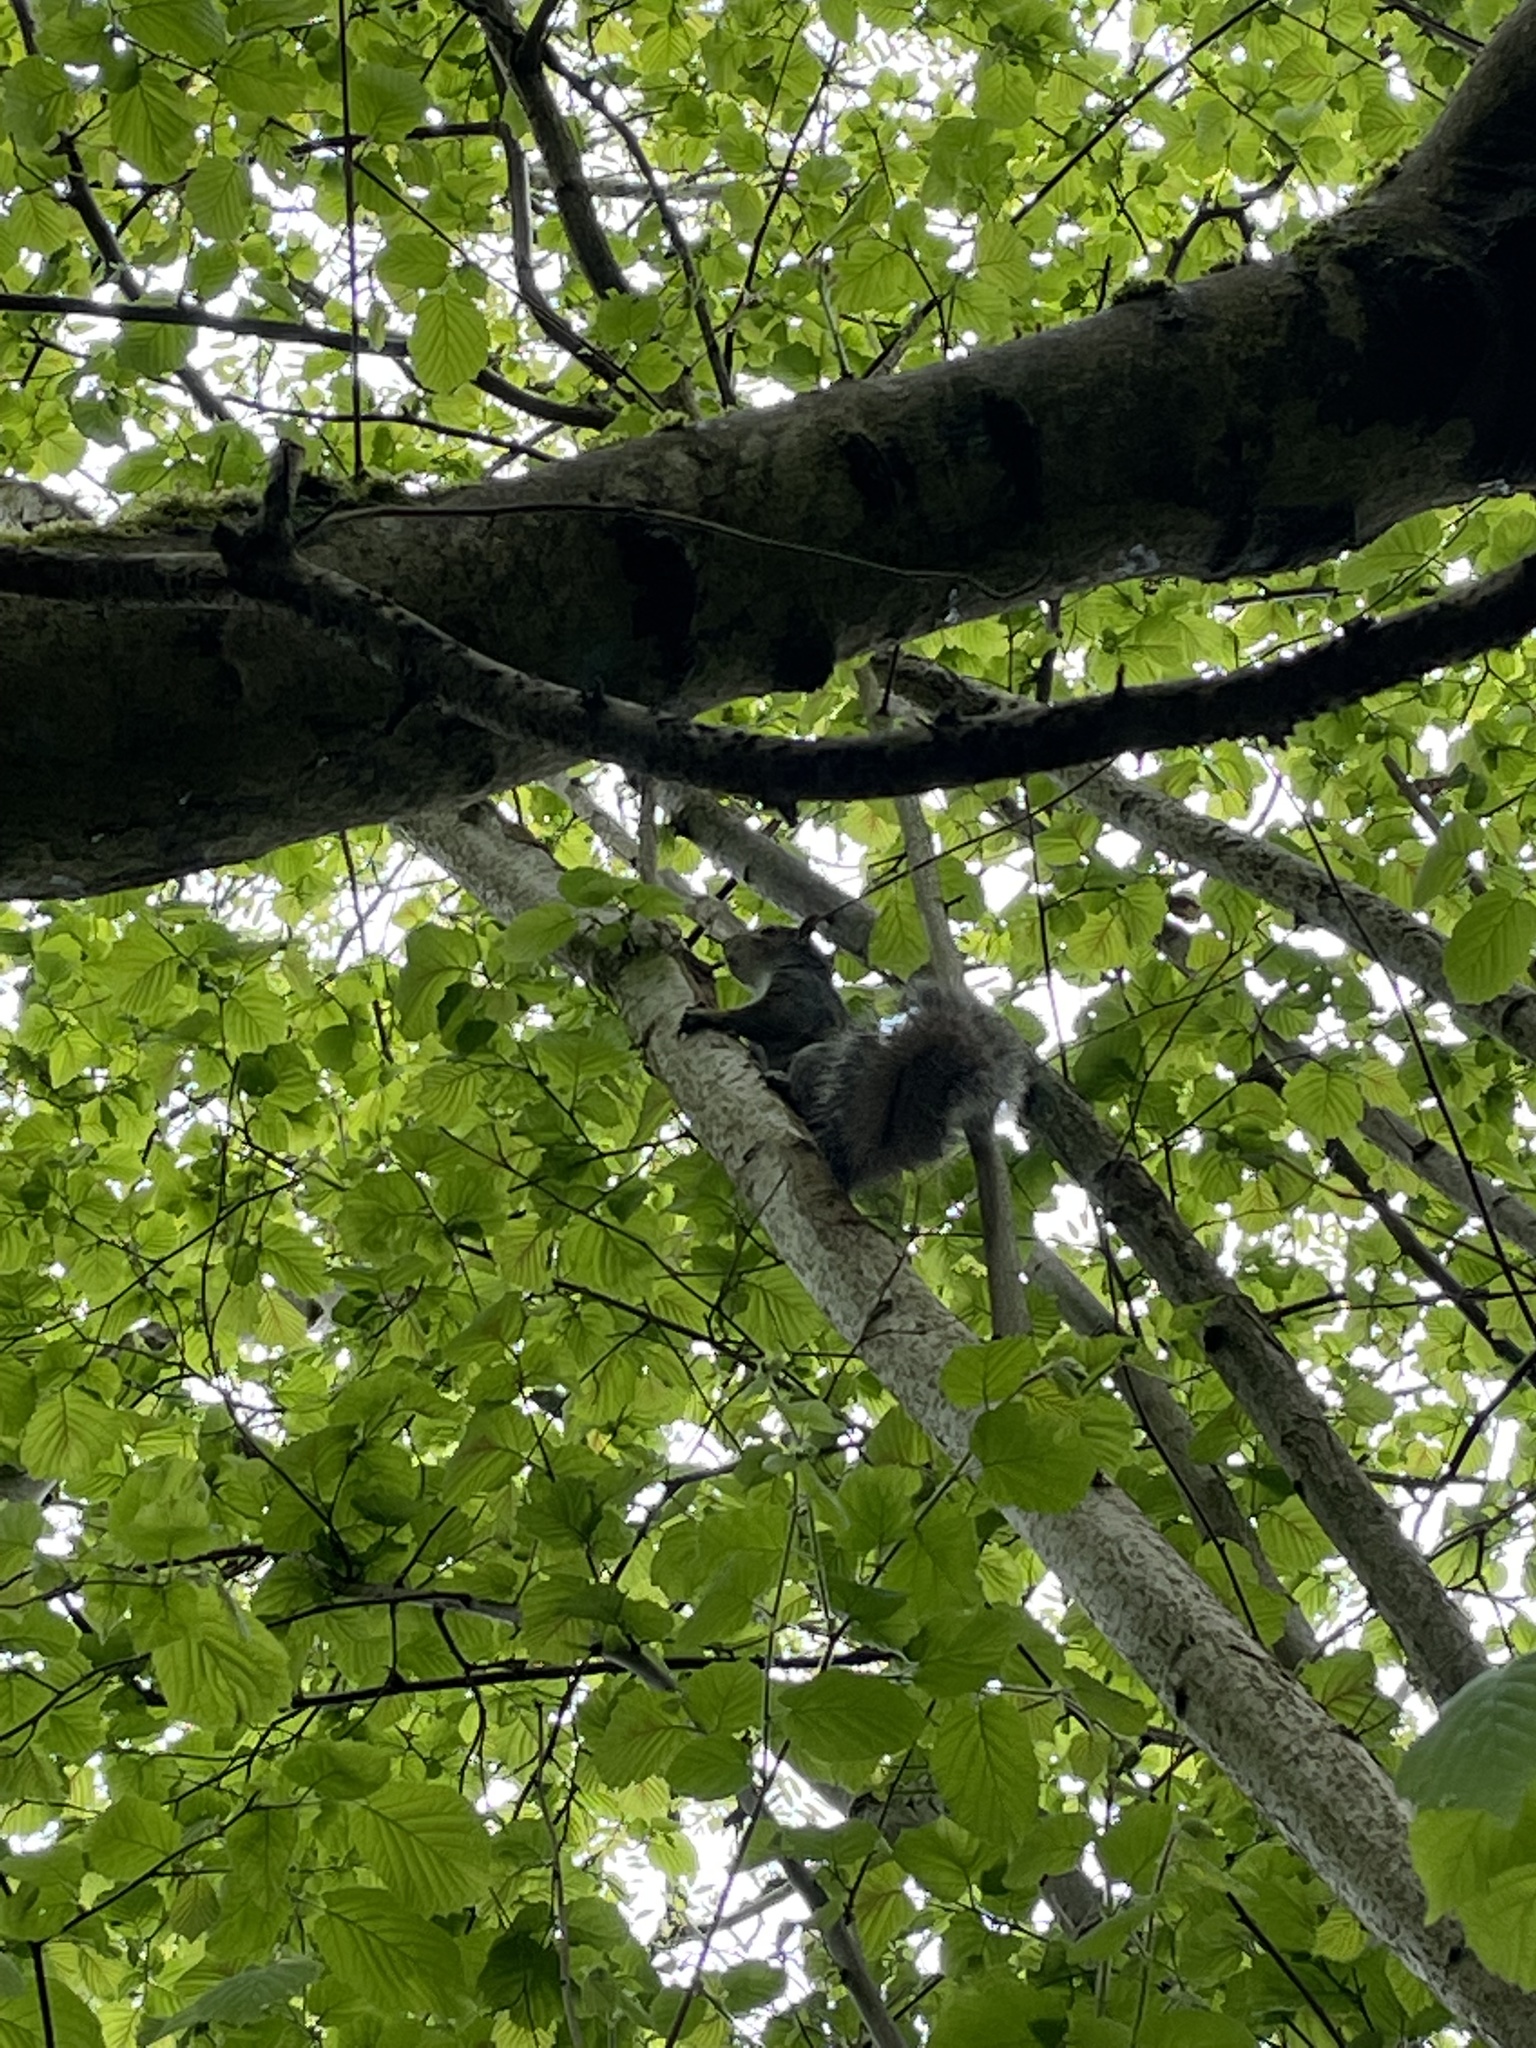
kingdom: Animalia
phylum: Chordata
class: Mammalia
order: Rodentia
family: Sciuridae
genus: Sciurus
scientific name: Sciurus carolinensis
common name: Eastern gray squirrel
